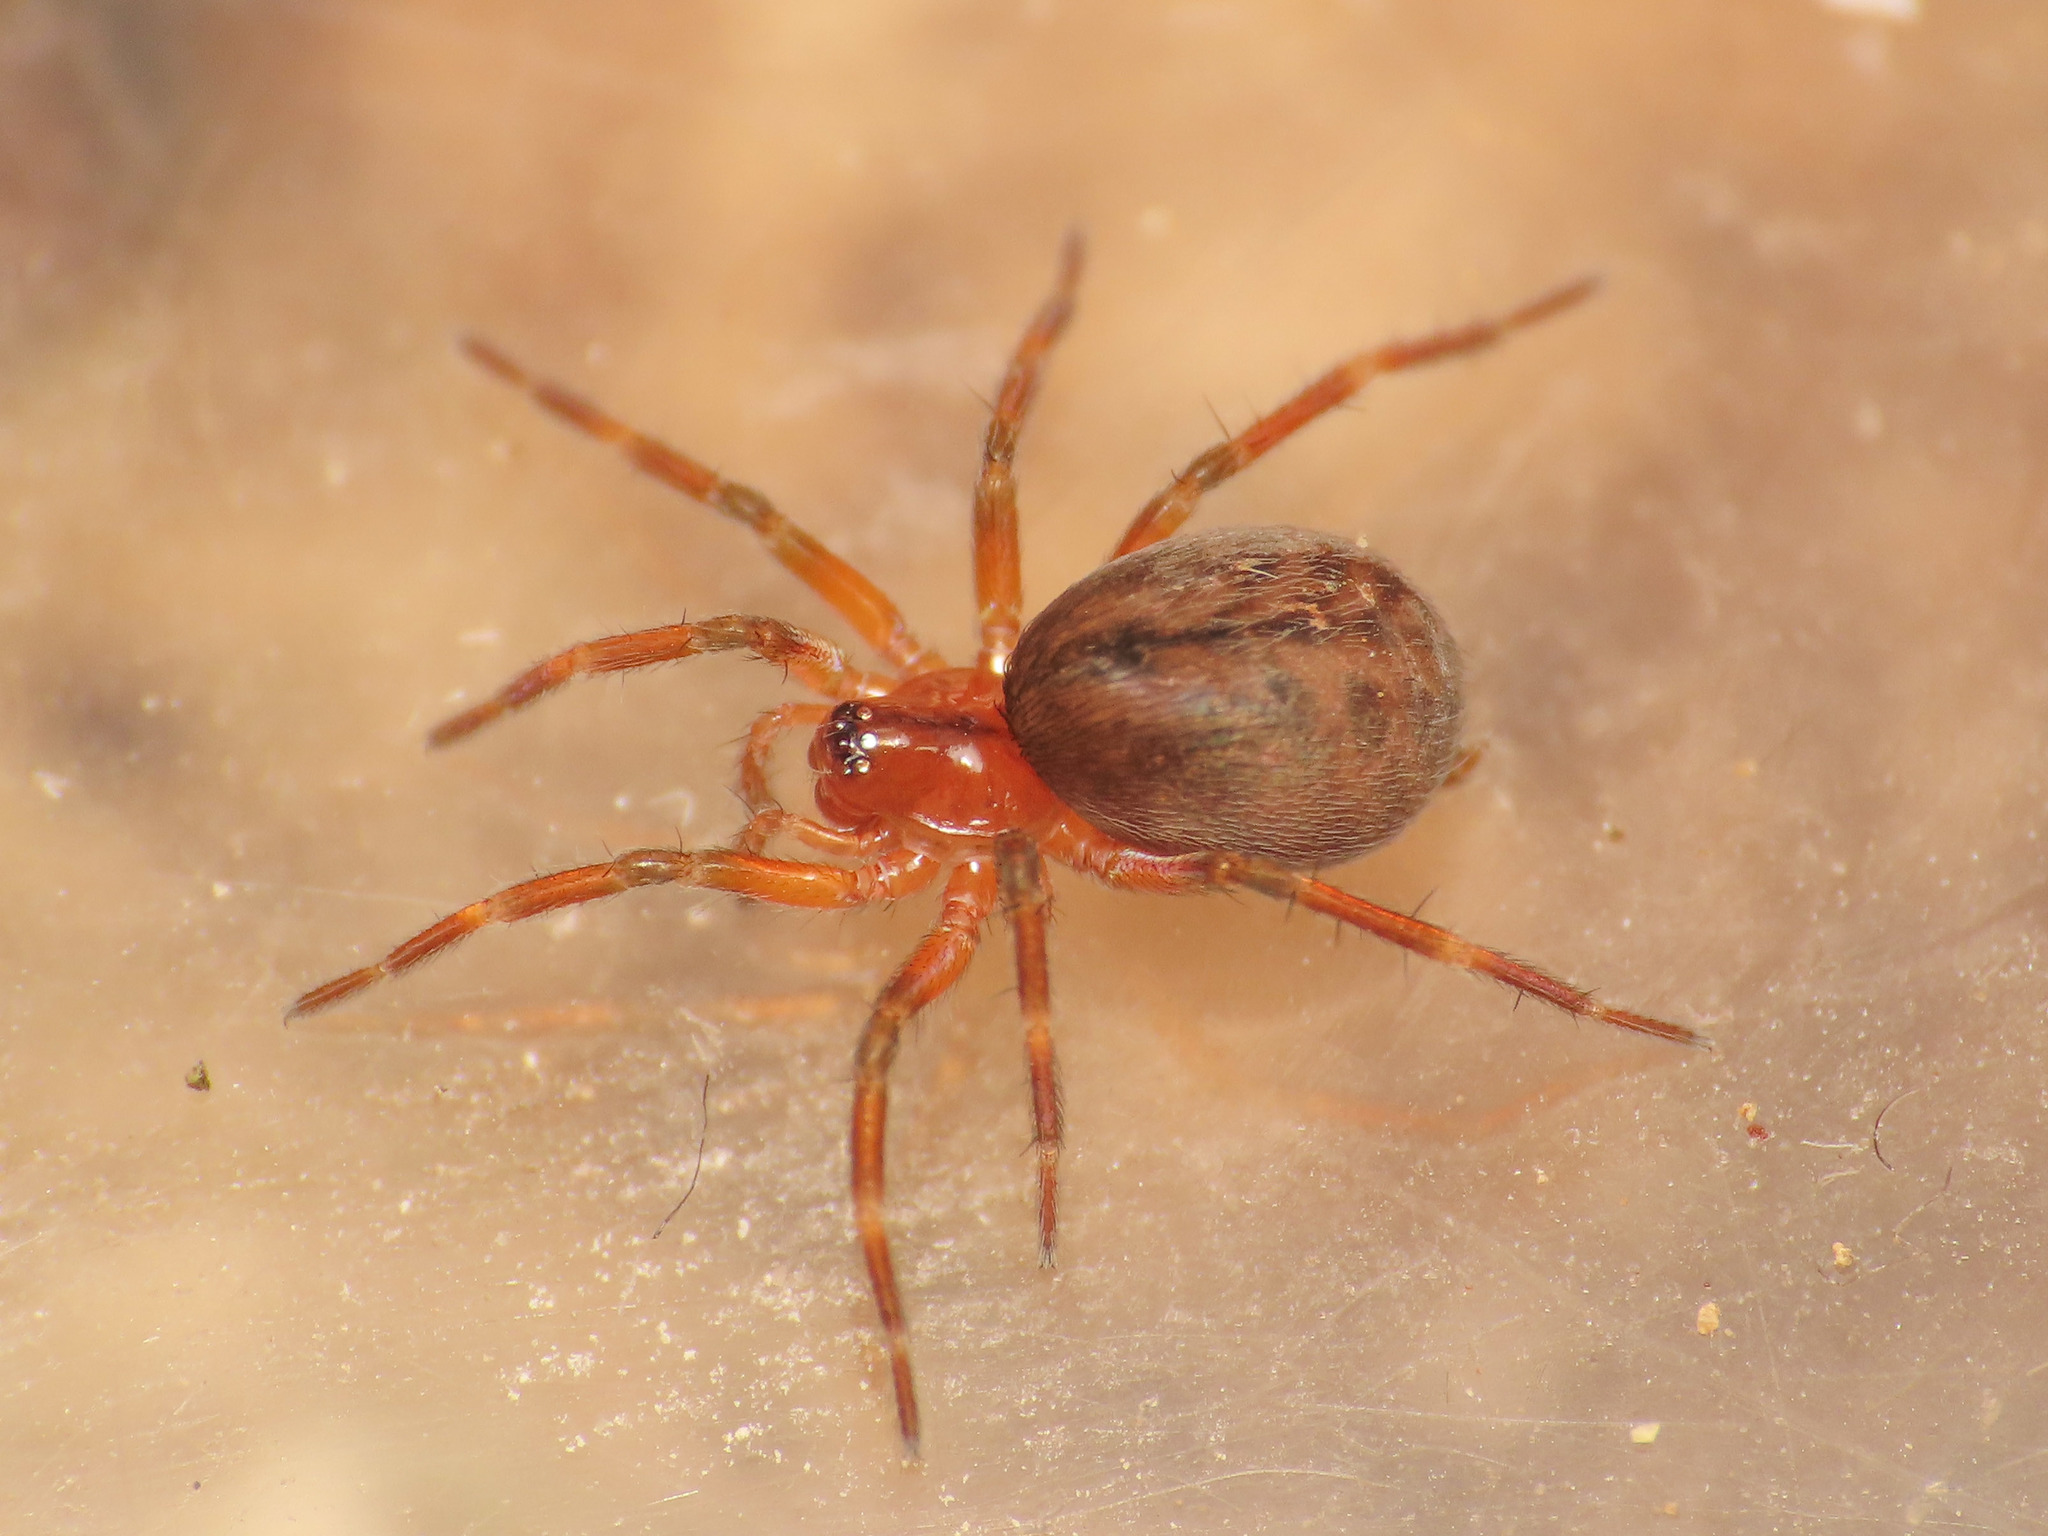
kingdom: Animalia
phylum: Arthropoda
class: Arachnida
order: Araneae
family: Hahniidae
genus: Antistea
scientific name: Antistea elegans
